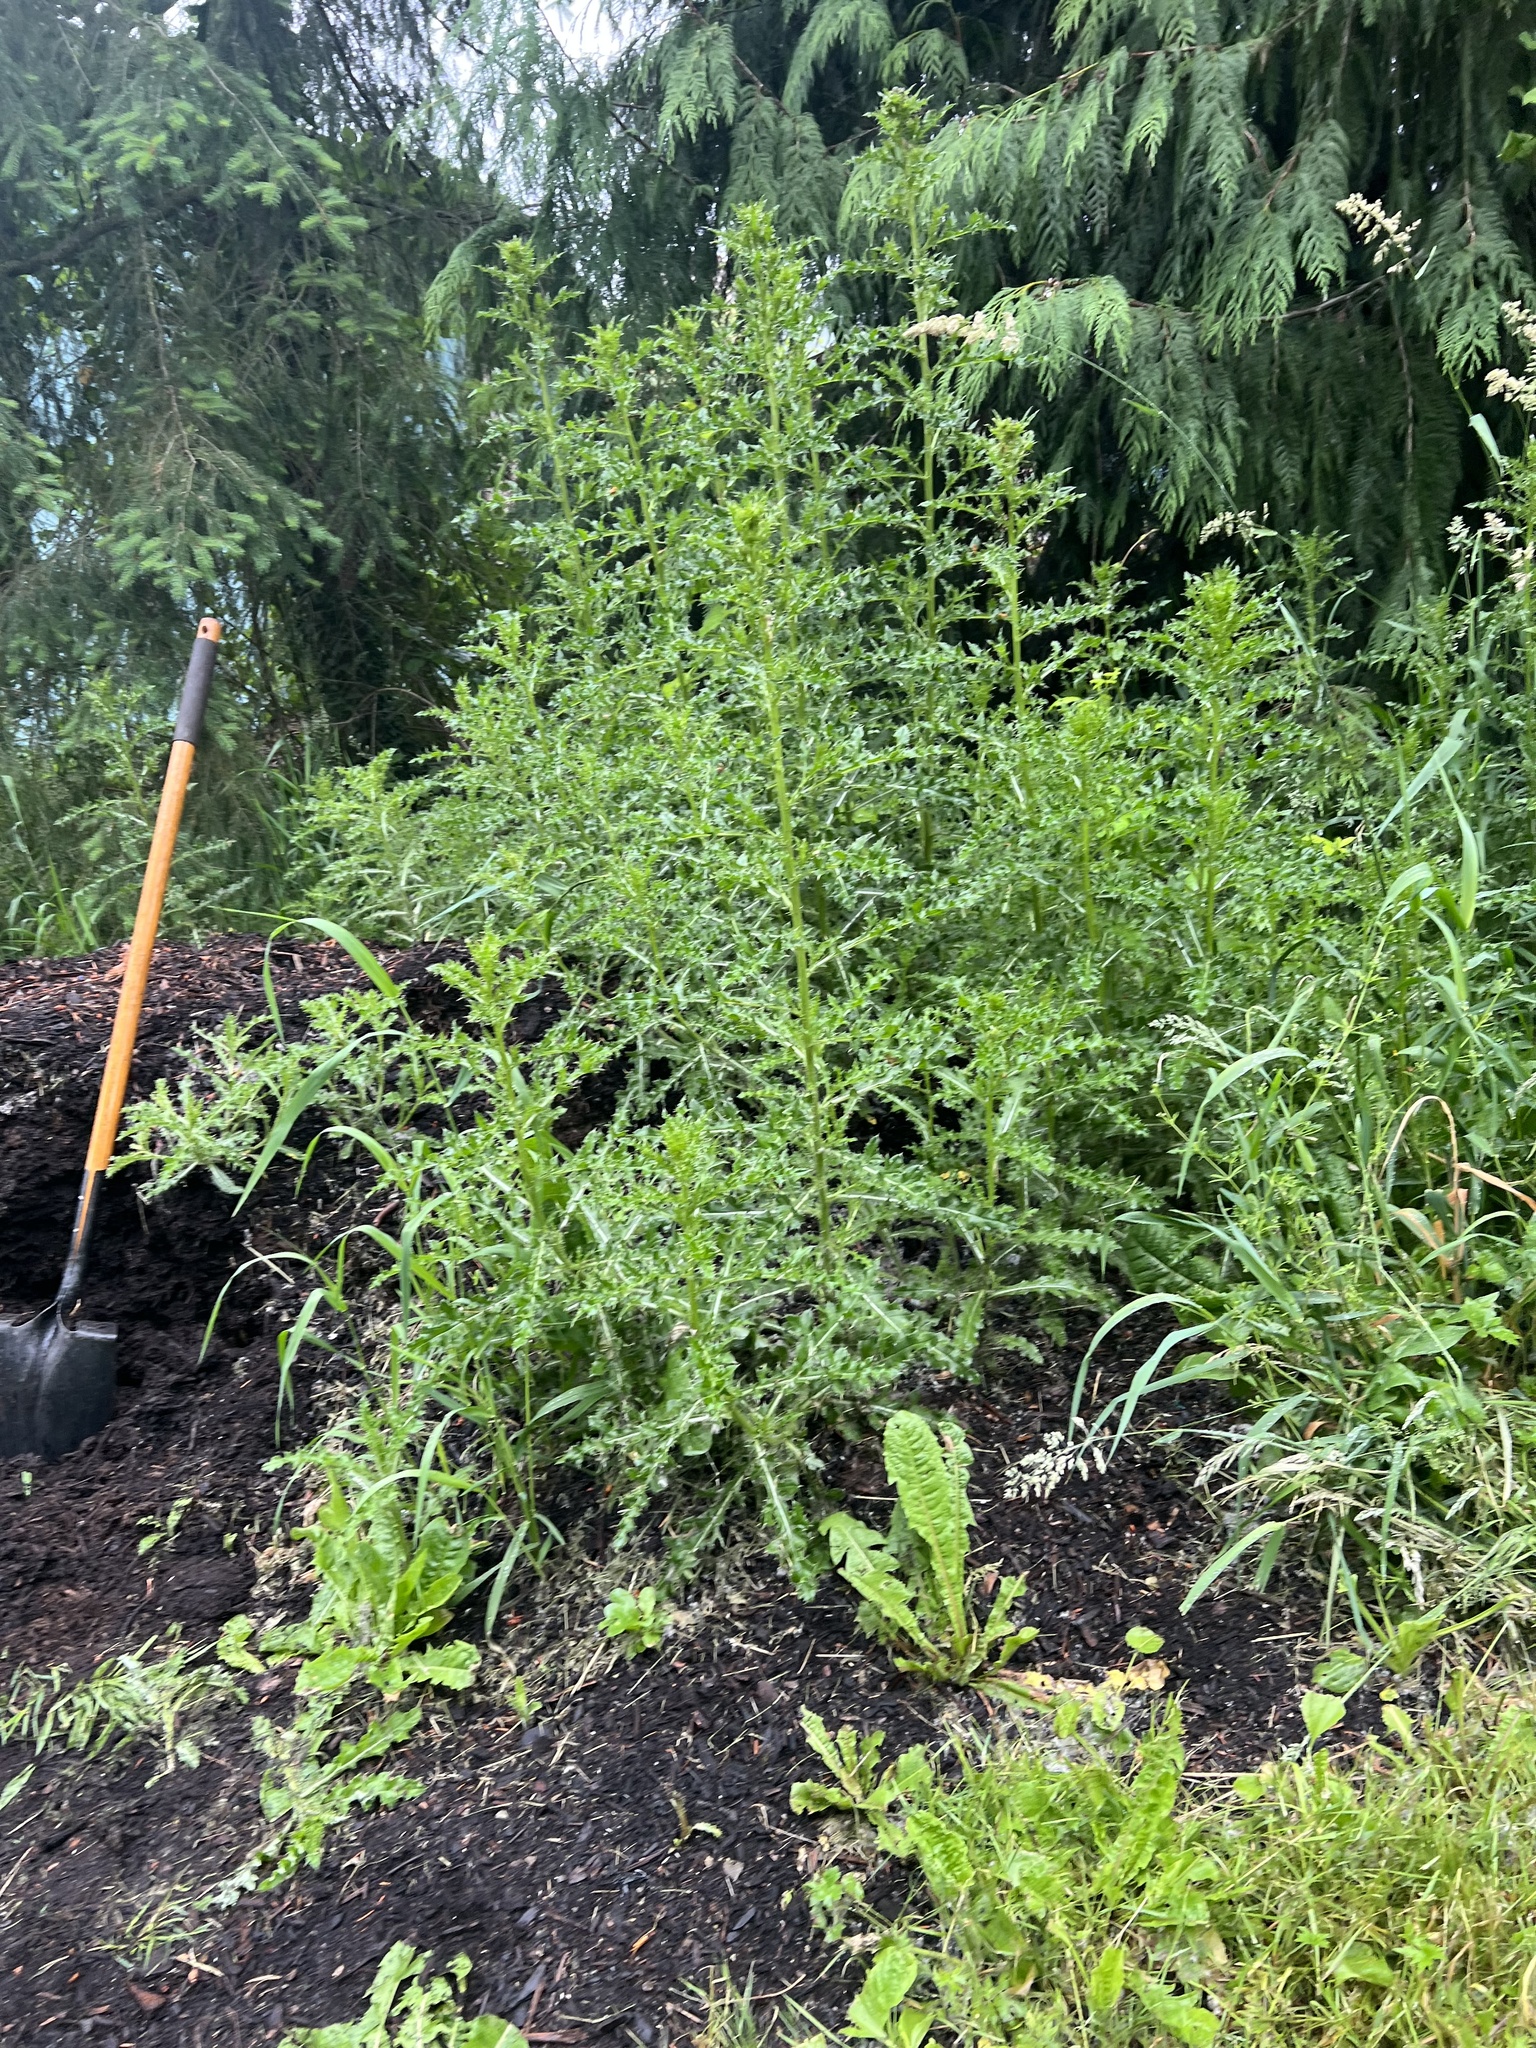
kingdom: Plantae
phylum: Tracheophyta
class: Magnoliopsida
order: Asterales
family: Asteraceae
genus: Cirsium
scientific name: Cirsium arvense
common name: Creeping thistle
